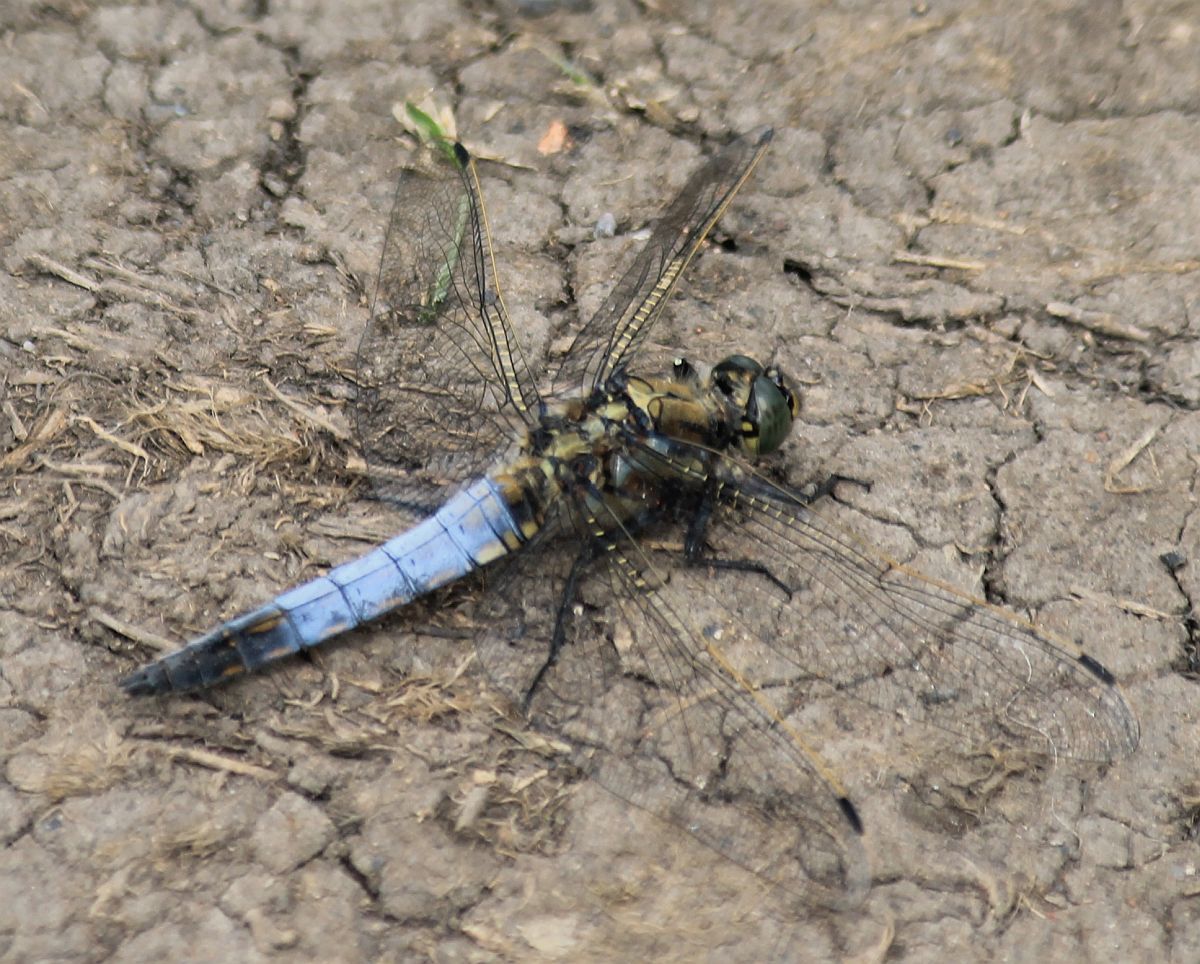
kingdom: Animalia
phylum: Arthropoda
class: Insecta
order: Odonata
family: Libellulidae
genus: Orthetrum
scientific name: Orthetrum cancellatum
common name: Black-tailed skimmer
